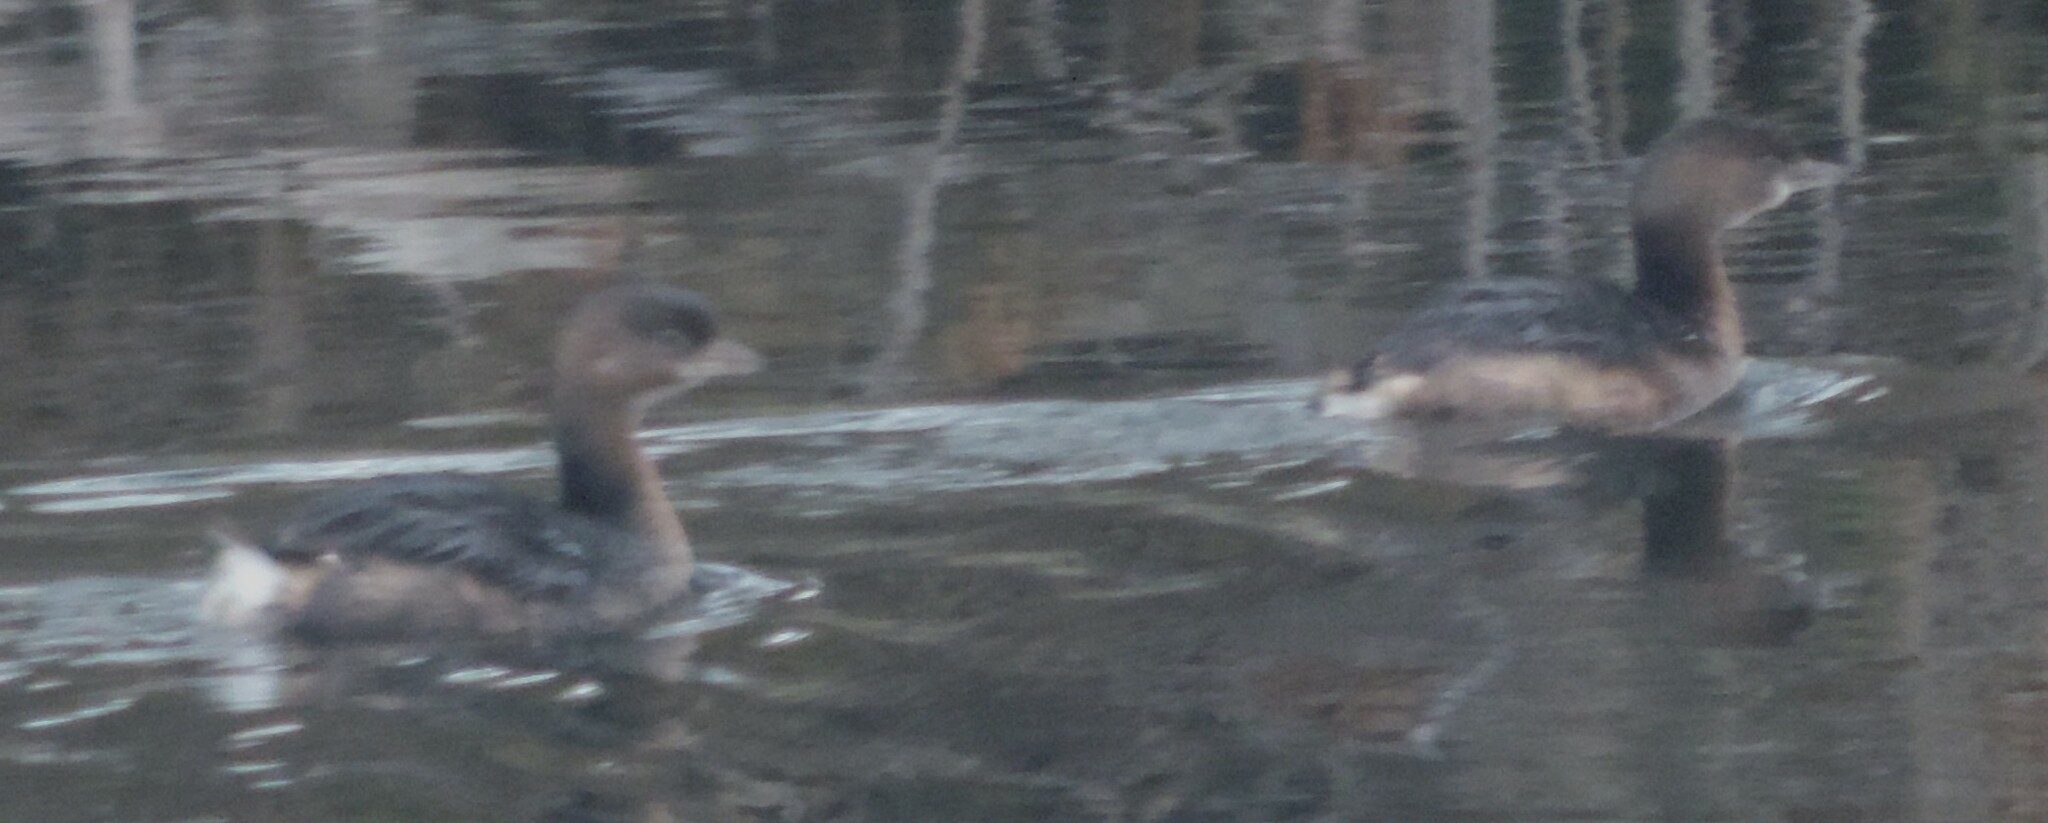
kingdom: Animalia
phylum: Chordata
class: Aves
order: Podicipediformes
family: Podicipedidae
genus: Podilymbus
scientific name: Podilymbus podiceps
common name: Pied-billed grebe
